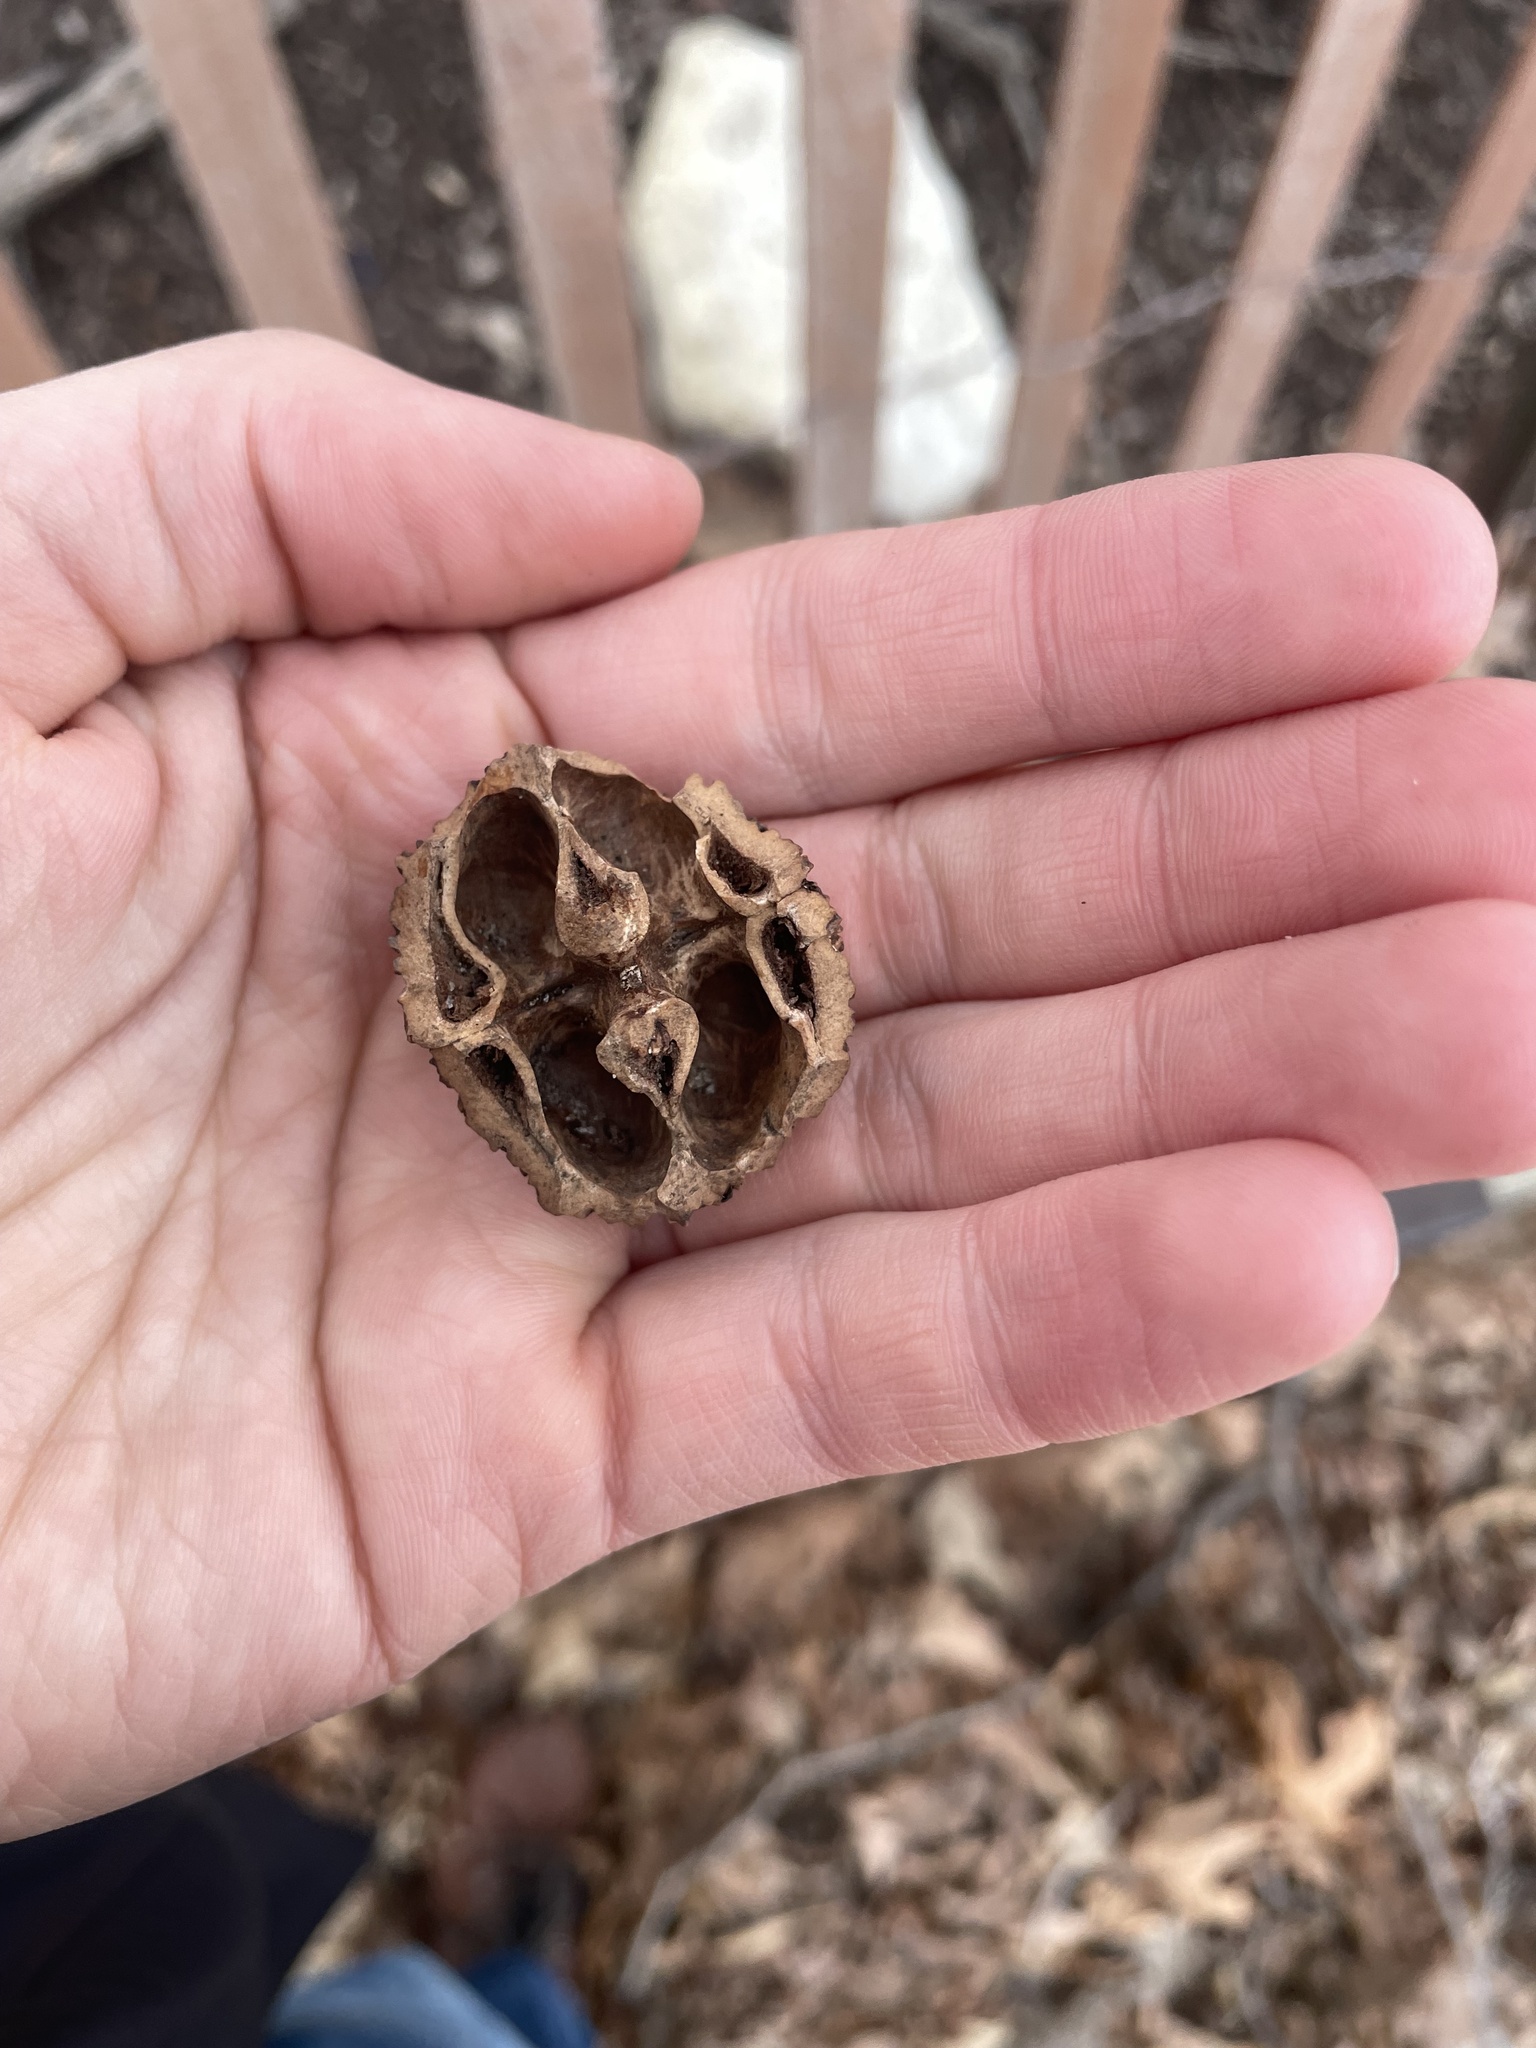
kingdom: Plantae
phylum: Tracheophyta
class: Magnoliopsida
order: Fagales
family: Juglandaceae
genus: Juglans
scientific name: Juglans nigra
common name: Black walnut
